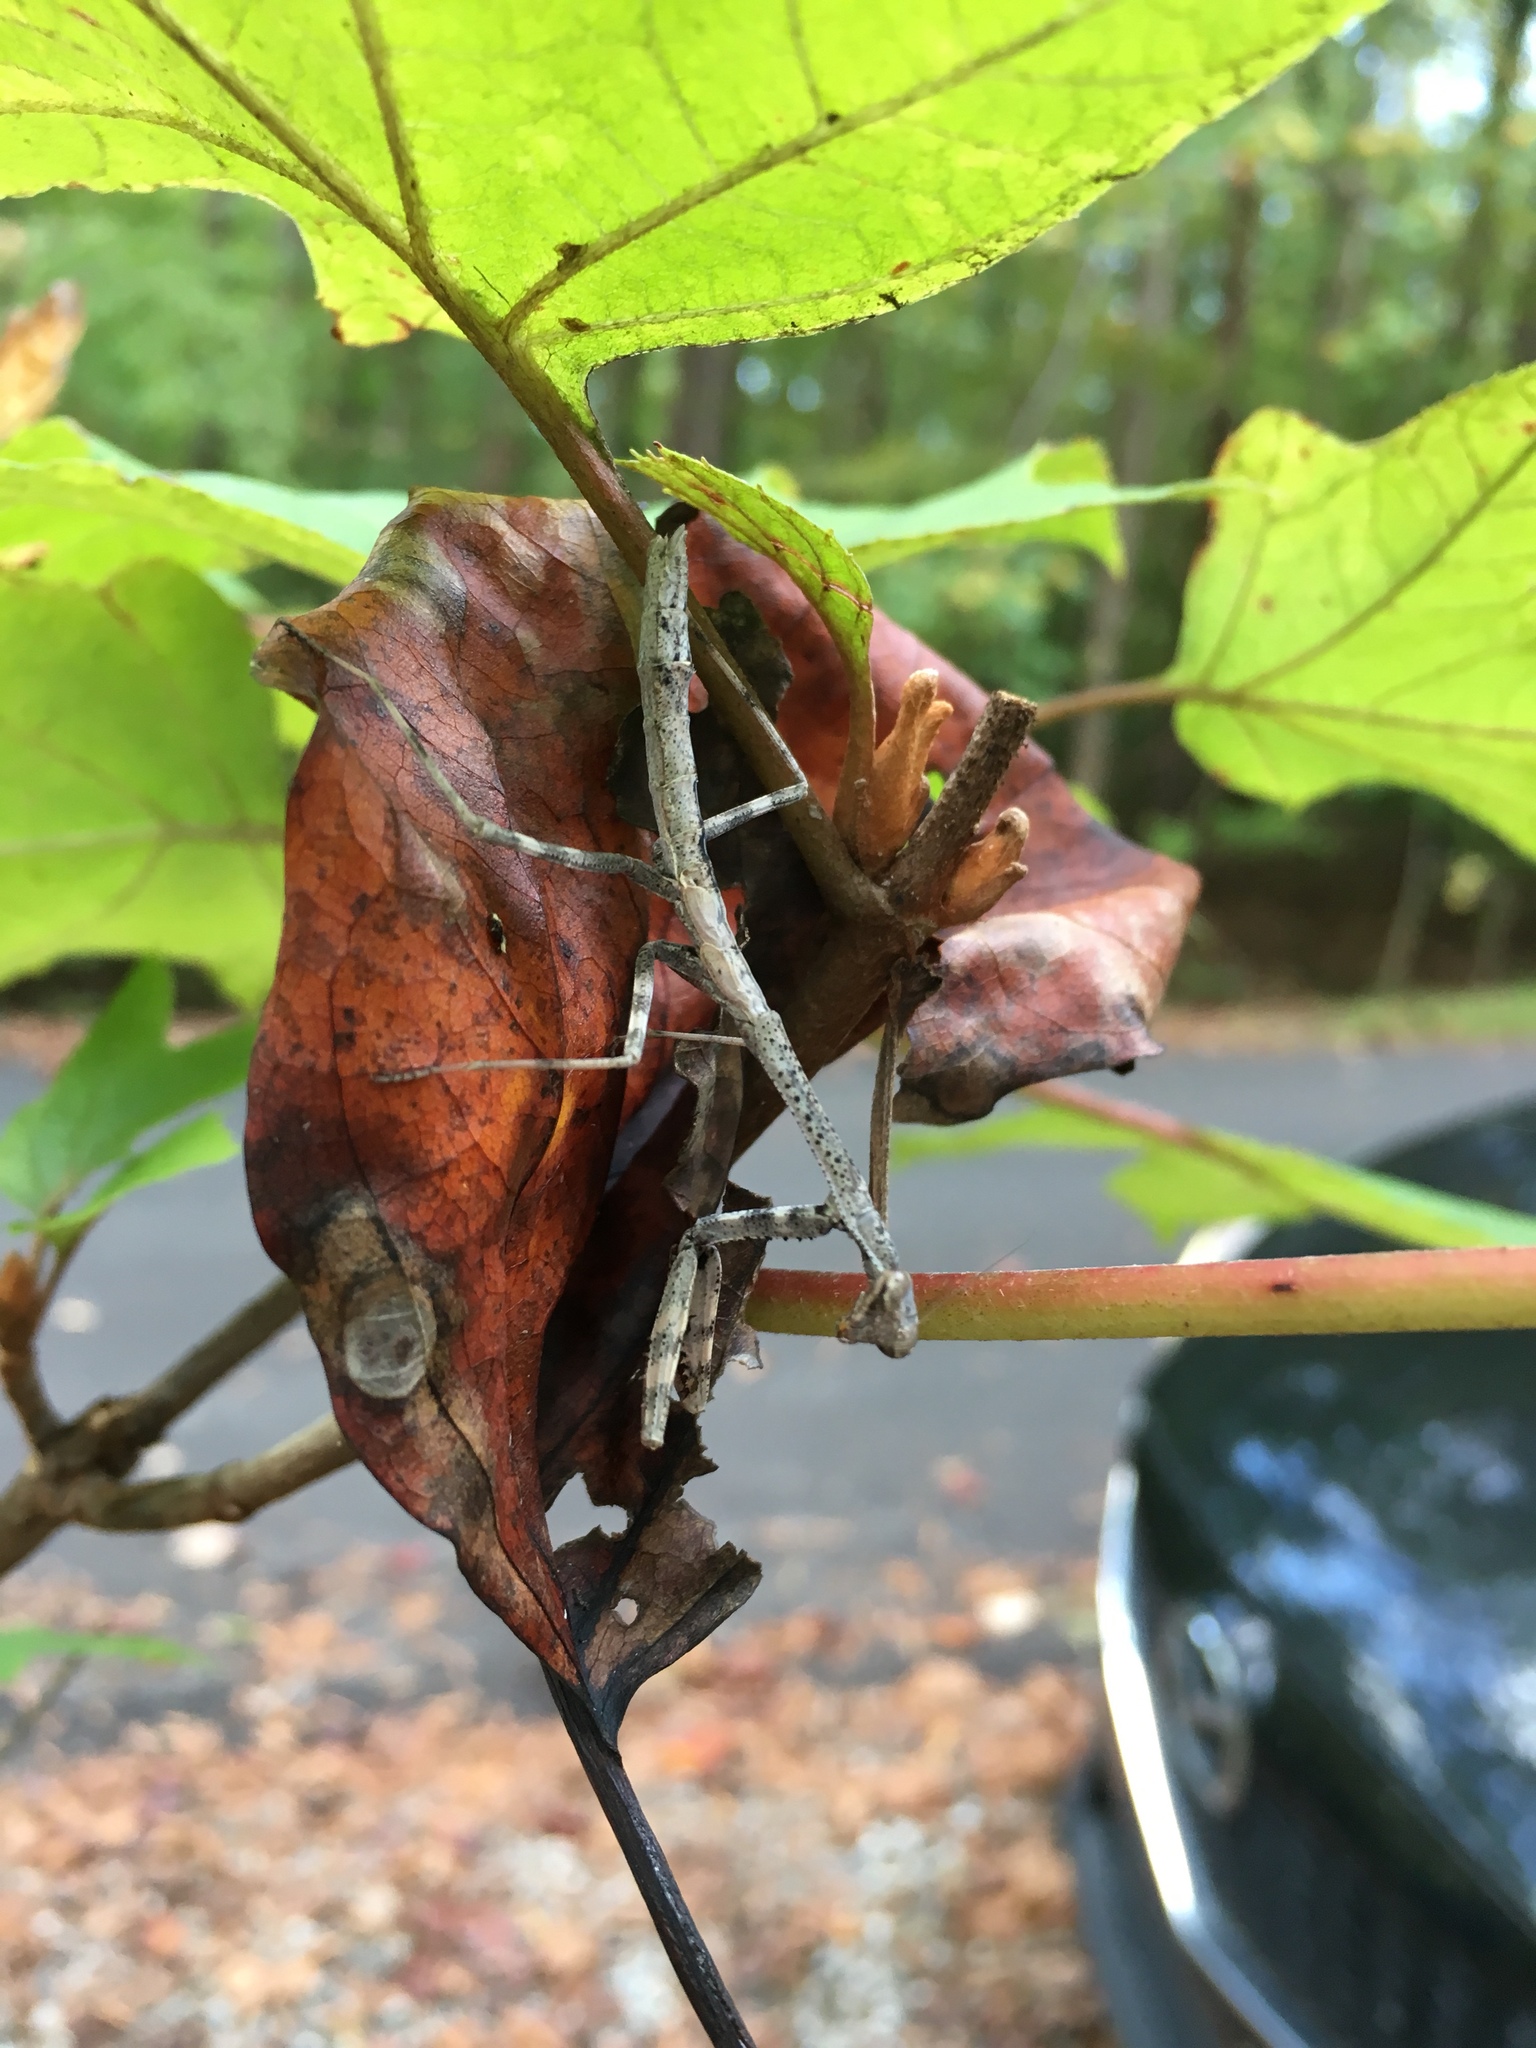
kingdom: Animalia
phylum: Arthropoda
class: Insecta
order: Mantodea
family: Mantidae
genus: Stagmomantis
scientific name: Stagmomantis carolina
